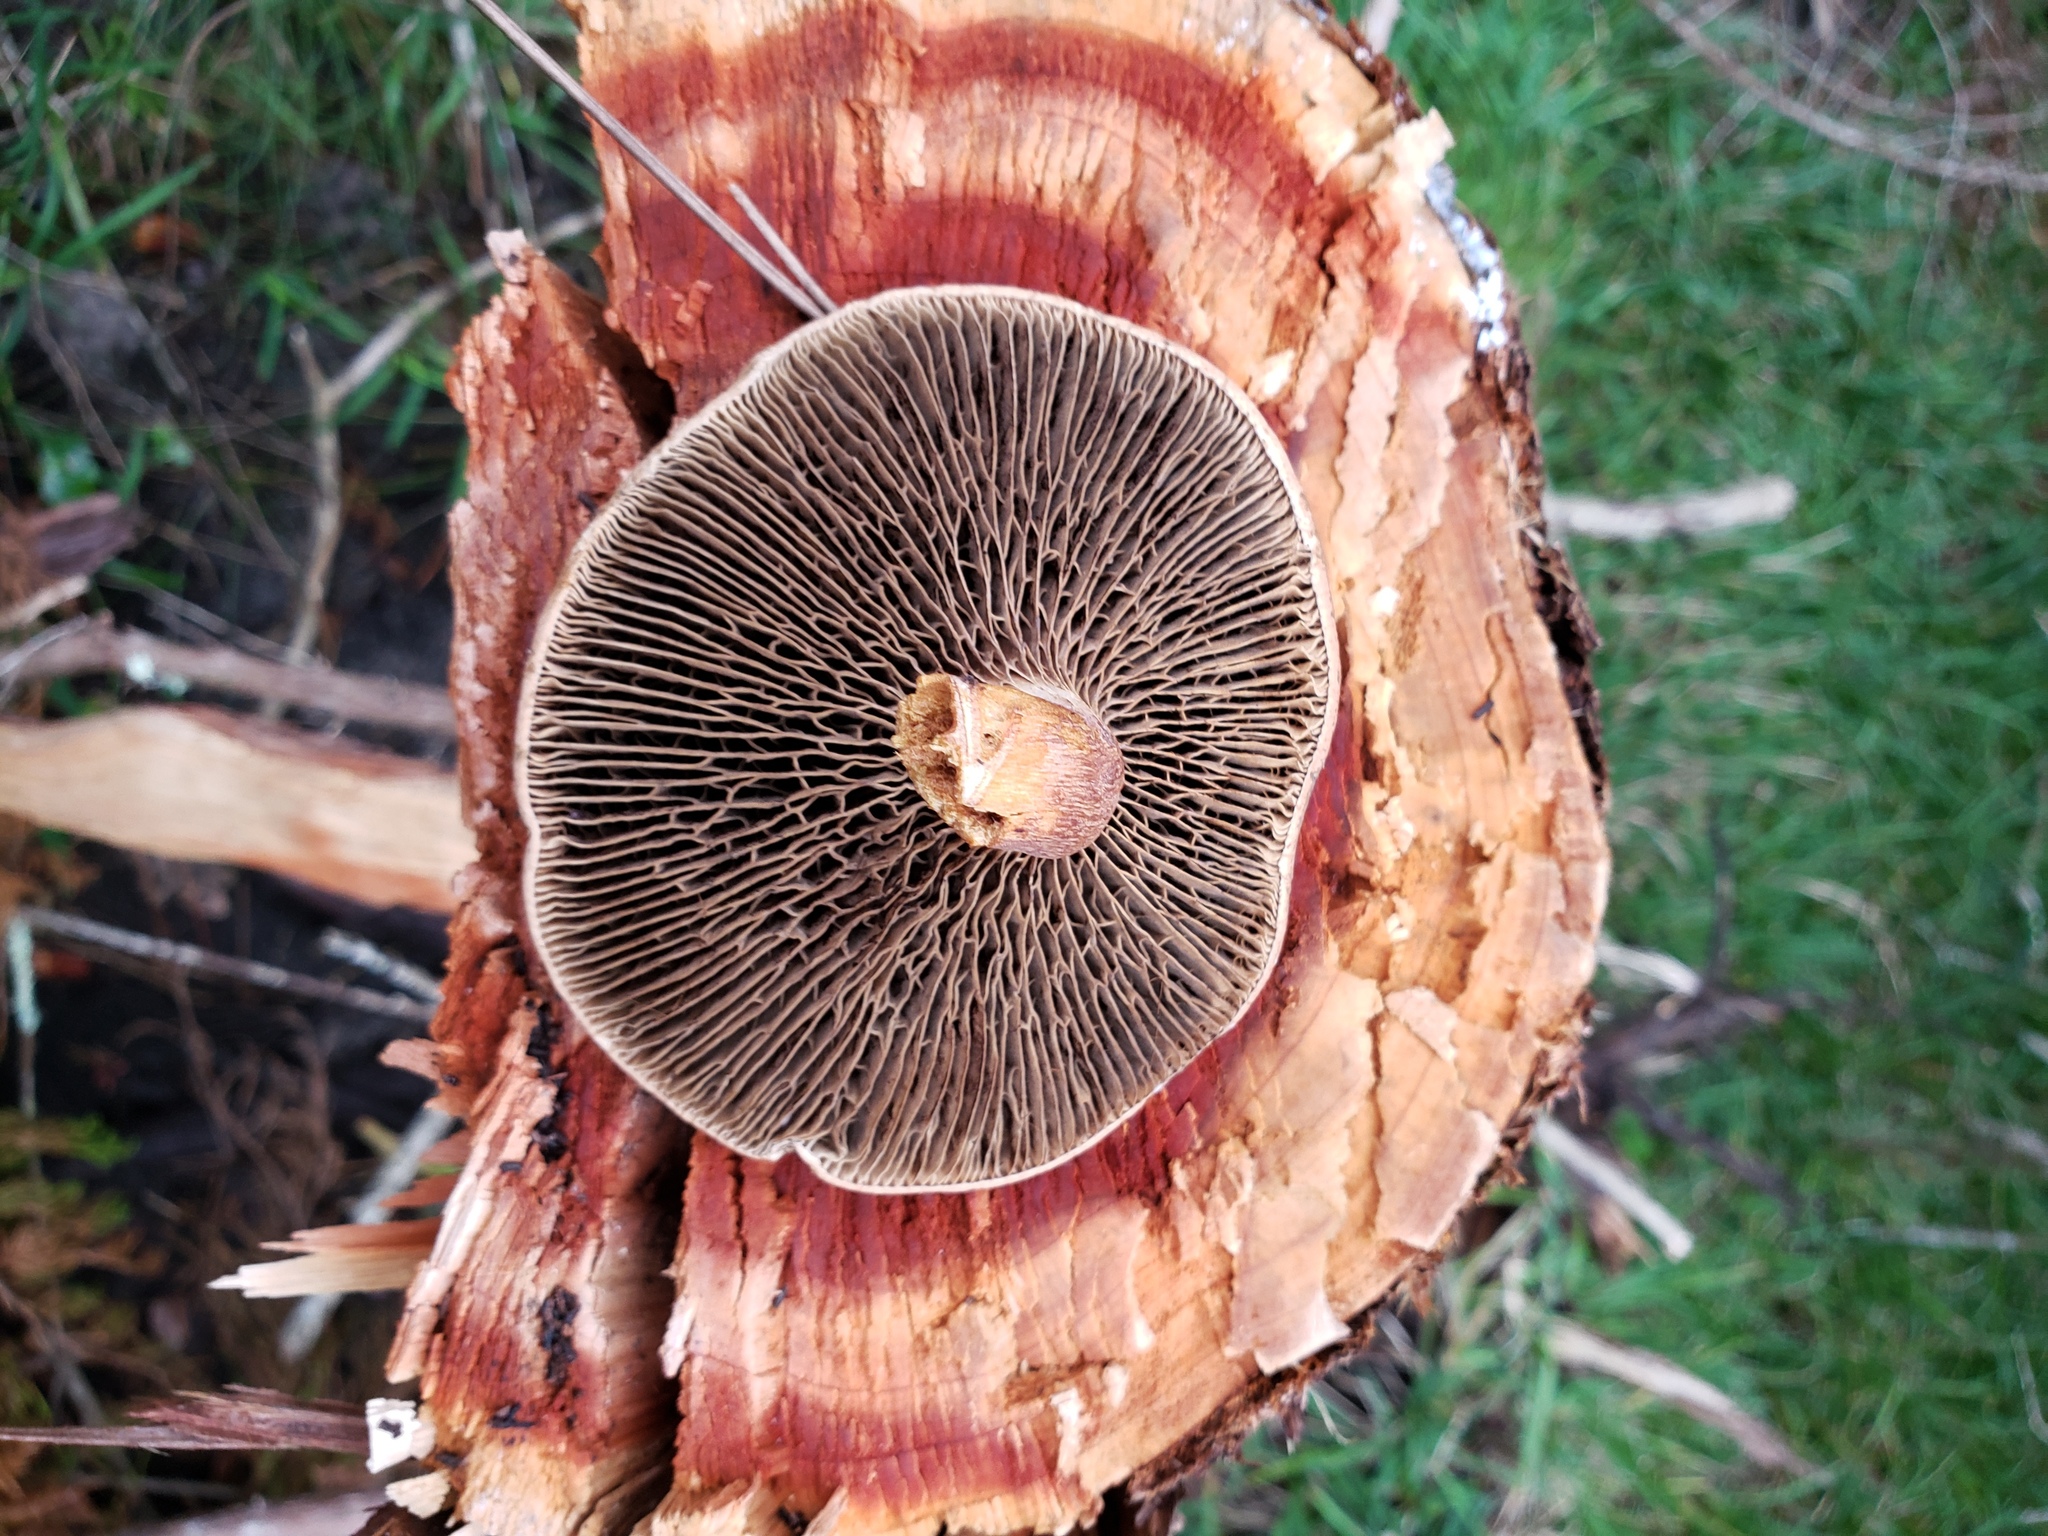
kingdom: Fungi
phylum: Basidiomycota
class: Agaricomycetes
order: Boletales
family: Boletaceae
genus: Phylloporopsis
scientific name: Phylloporopsis boletinoides
